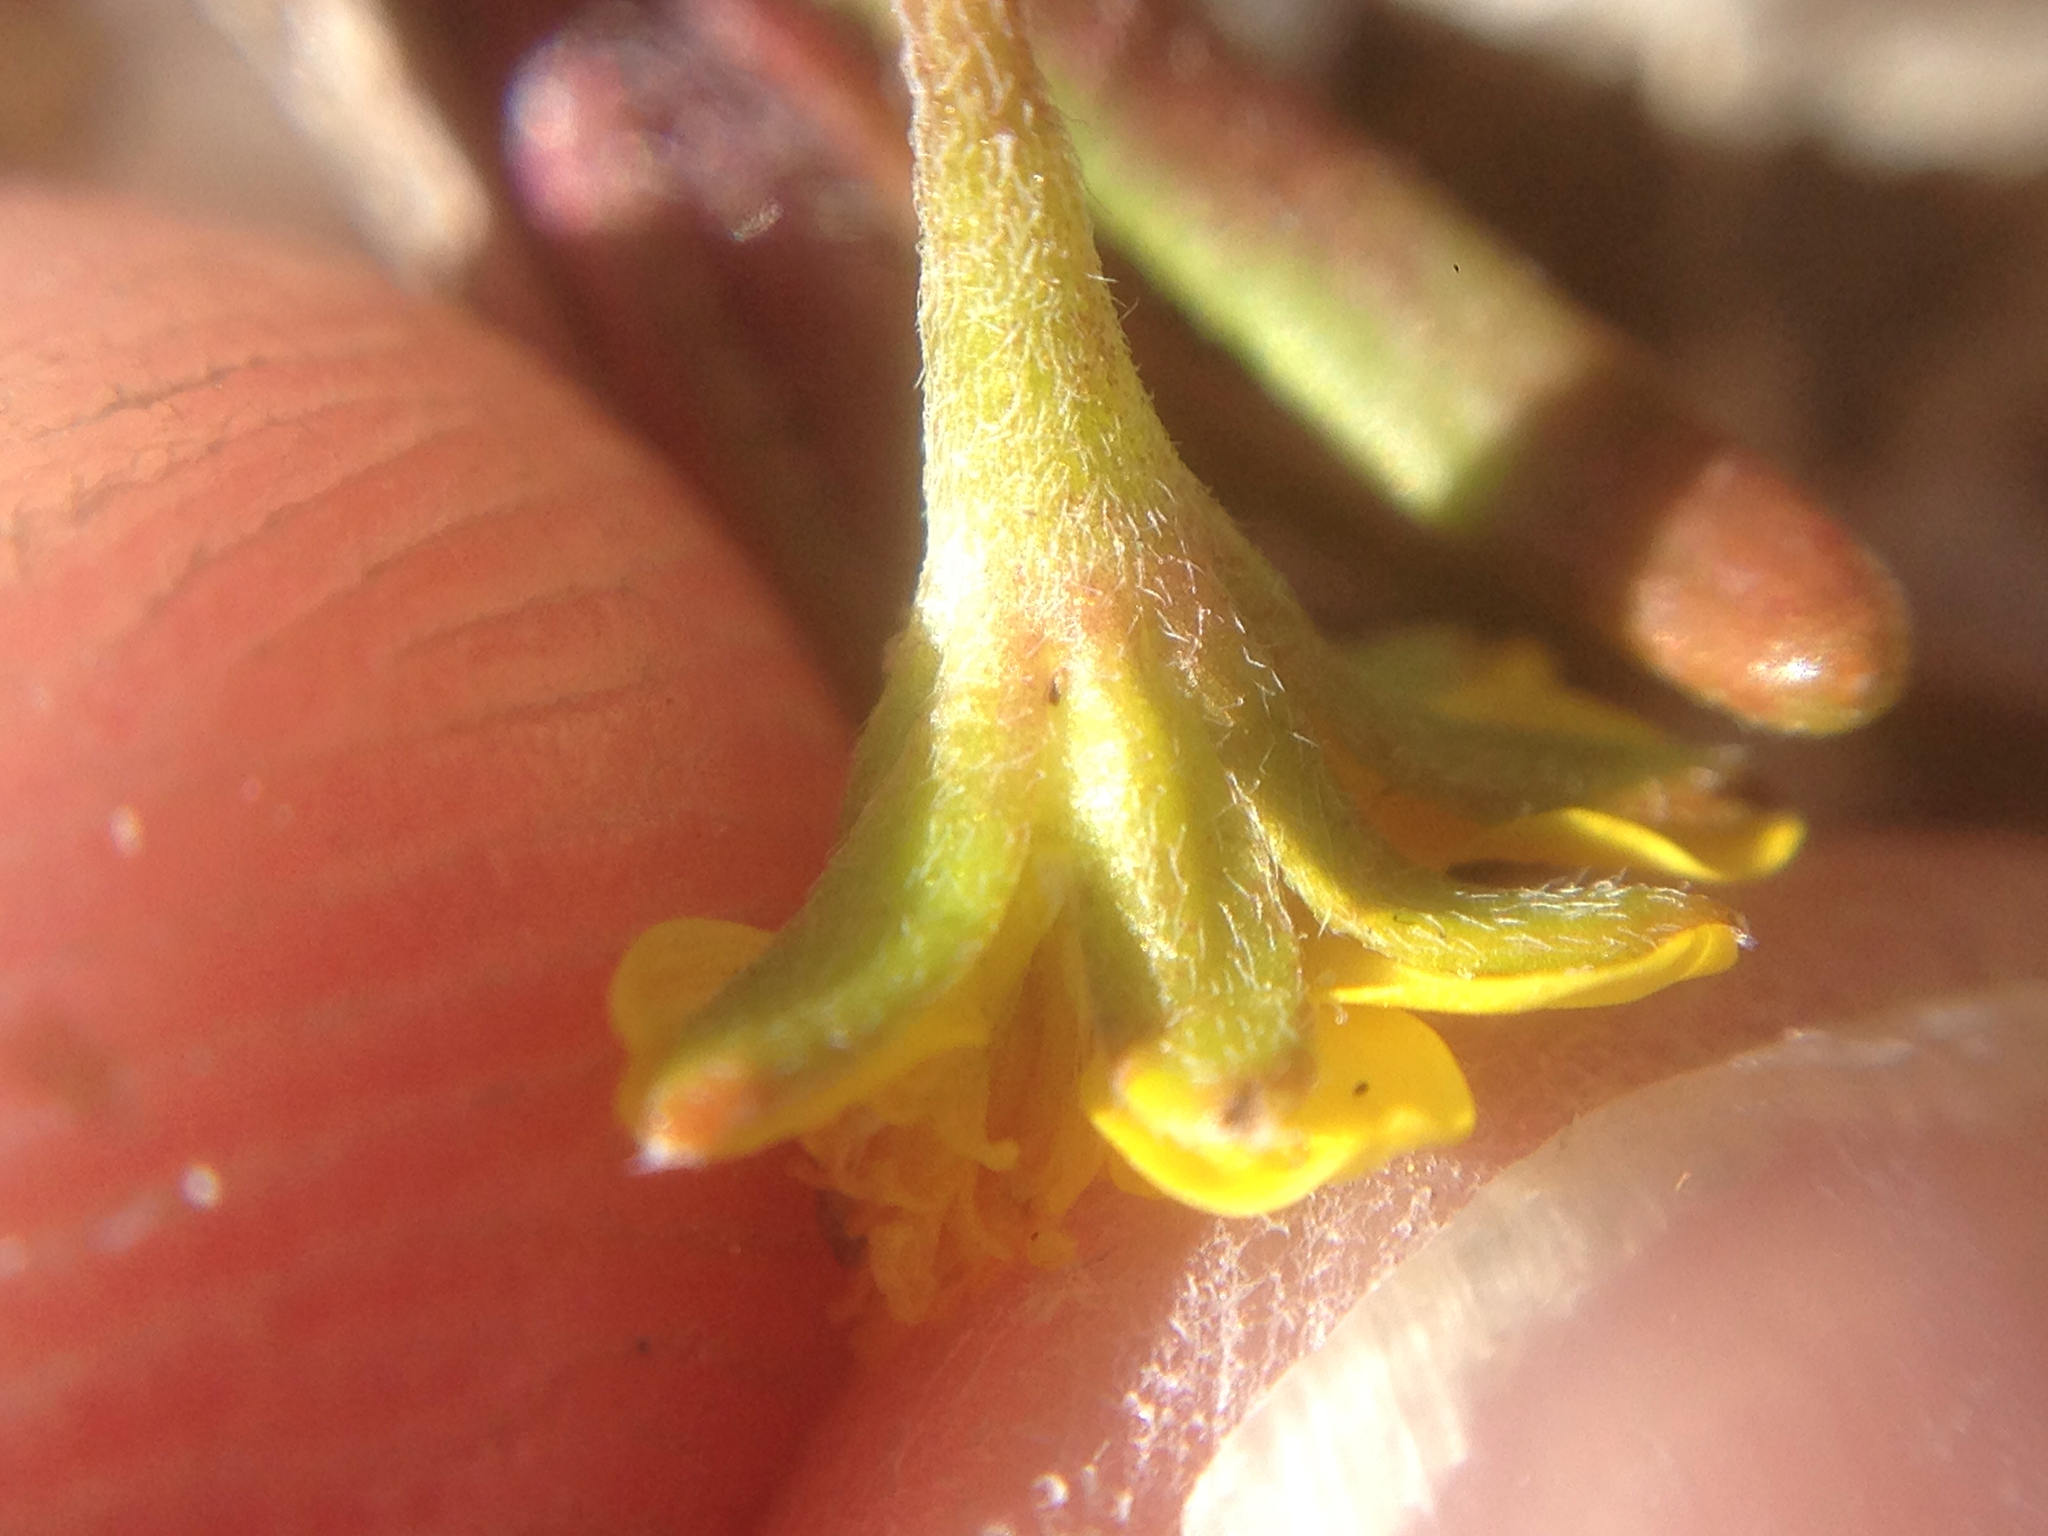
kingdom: Plantae
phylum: Tracheophyta
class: Magnoliopsida
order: Asterales
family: Asteraceae
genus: Lasthenia
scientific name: Lasthenia gracilis
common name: Common goldfields
